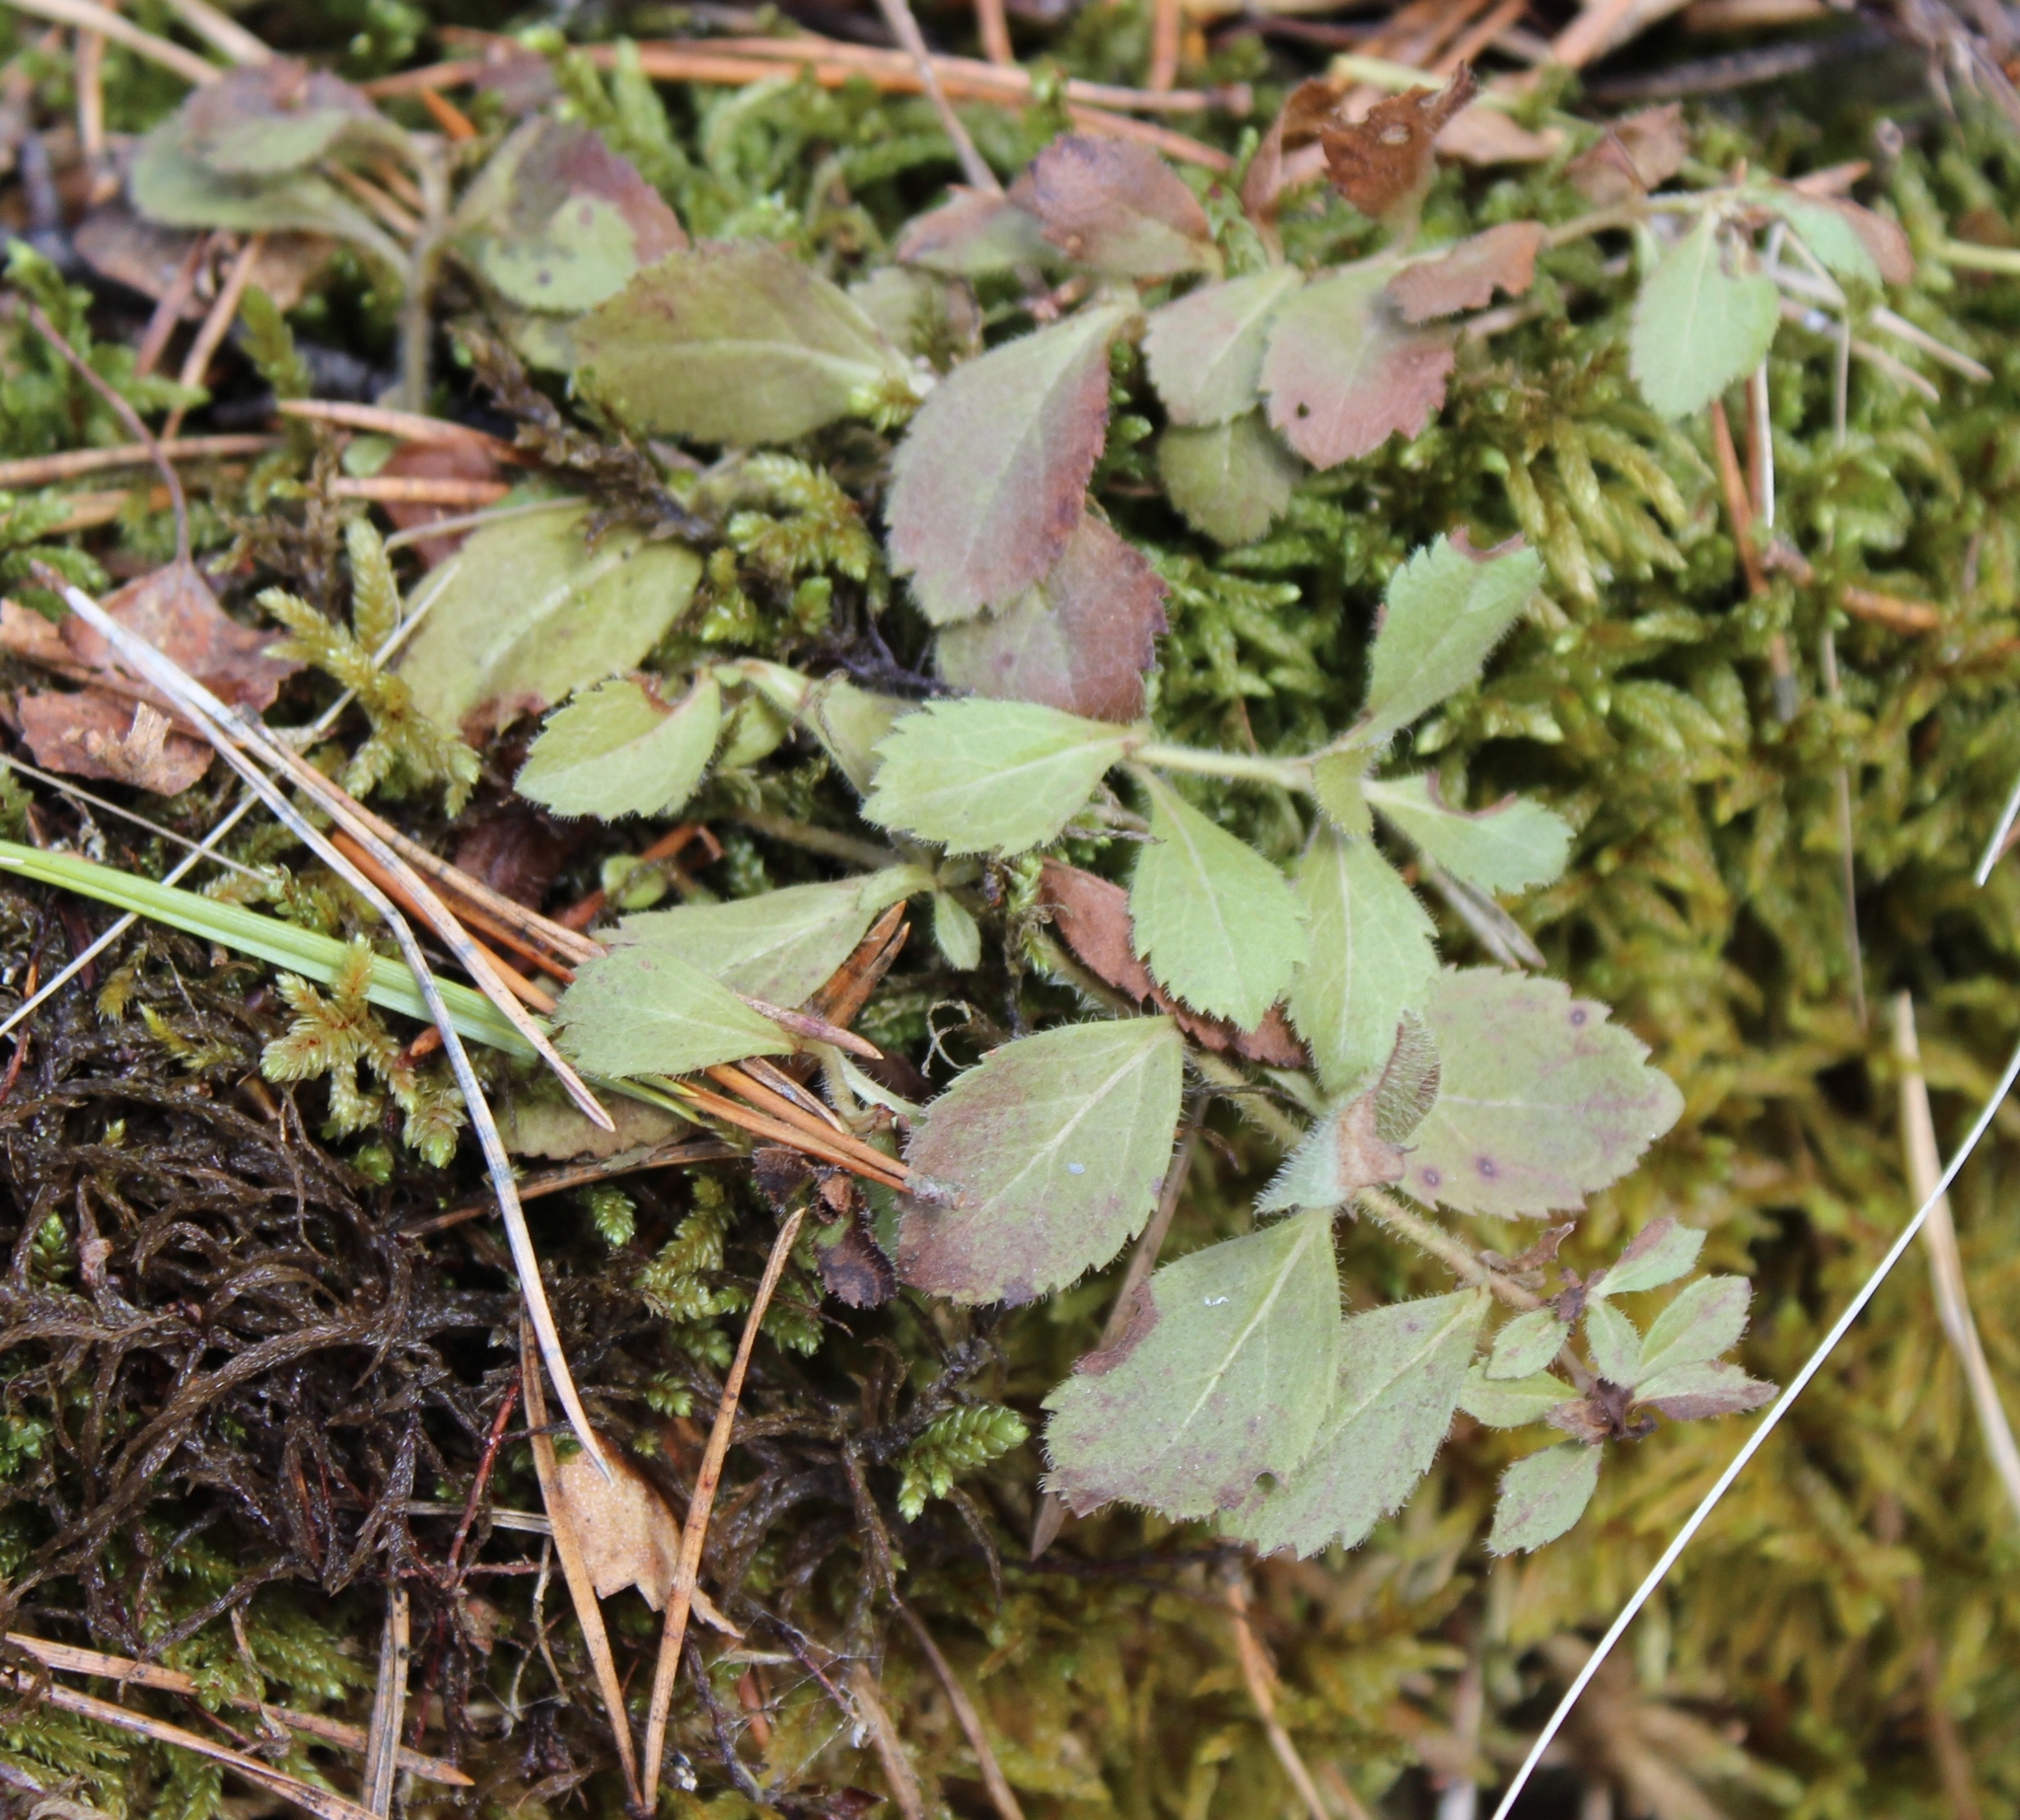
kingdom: Plantae
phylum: Tracheophyta
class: Magnoliopsida
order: Lamiales
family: Plantaginaceae
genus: Veronica
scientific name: Veronica officinalis
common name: Common speedwell
